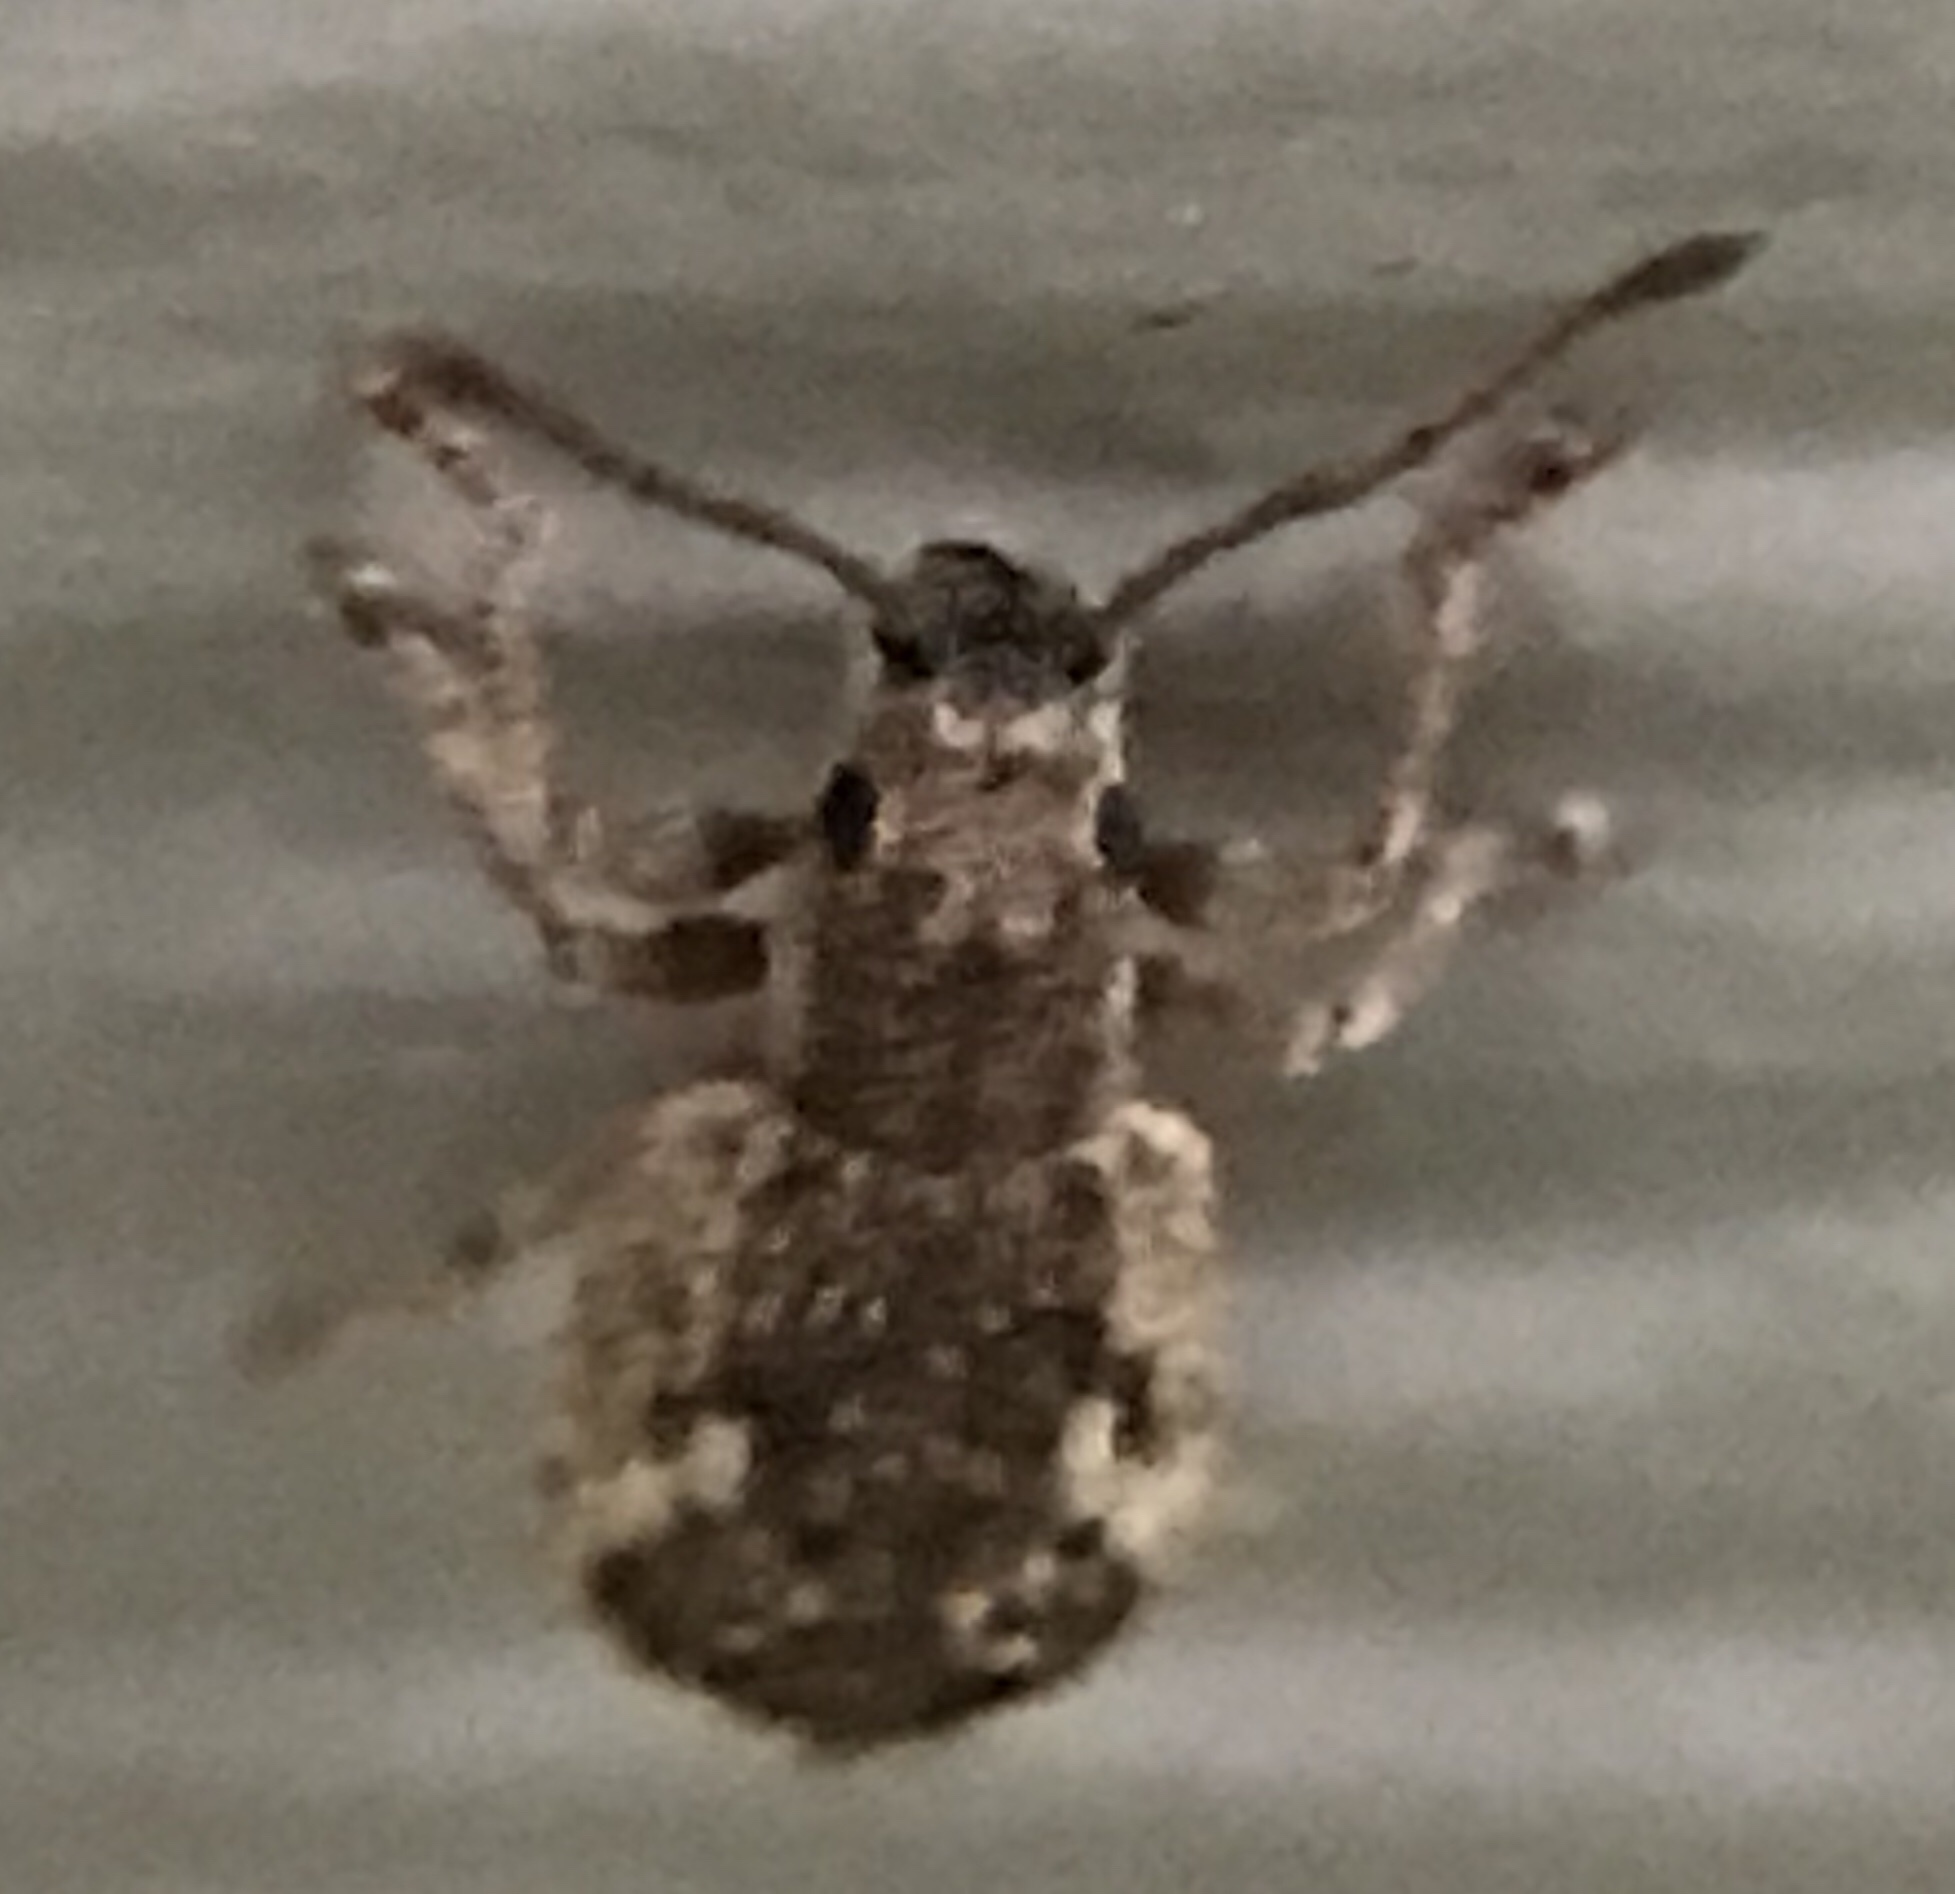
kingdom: Animalia
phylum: Arthropoda
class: Insecta
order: Coleoptera
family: Curculionidae
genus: Pseudoedophrys
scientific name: Pseudoedophrys hilleri
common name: Weevil
